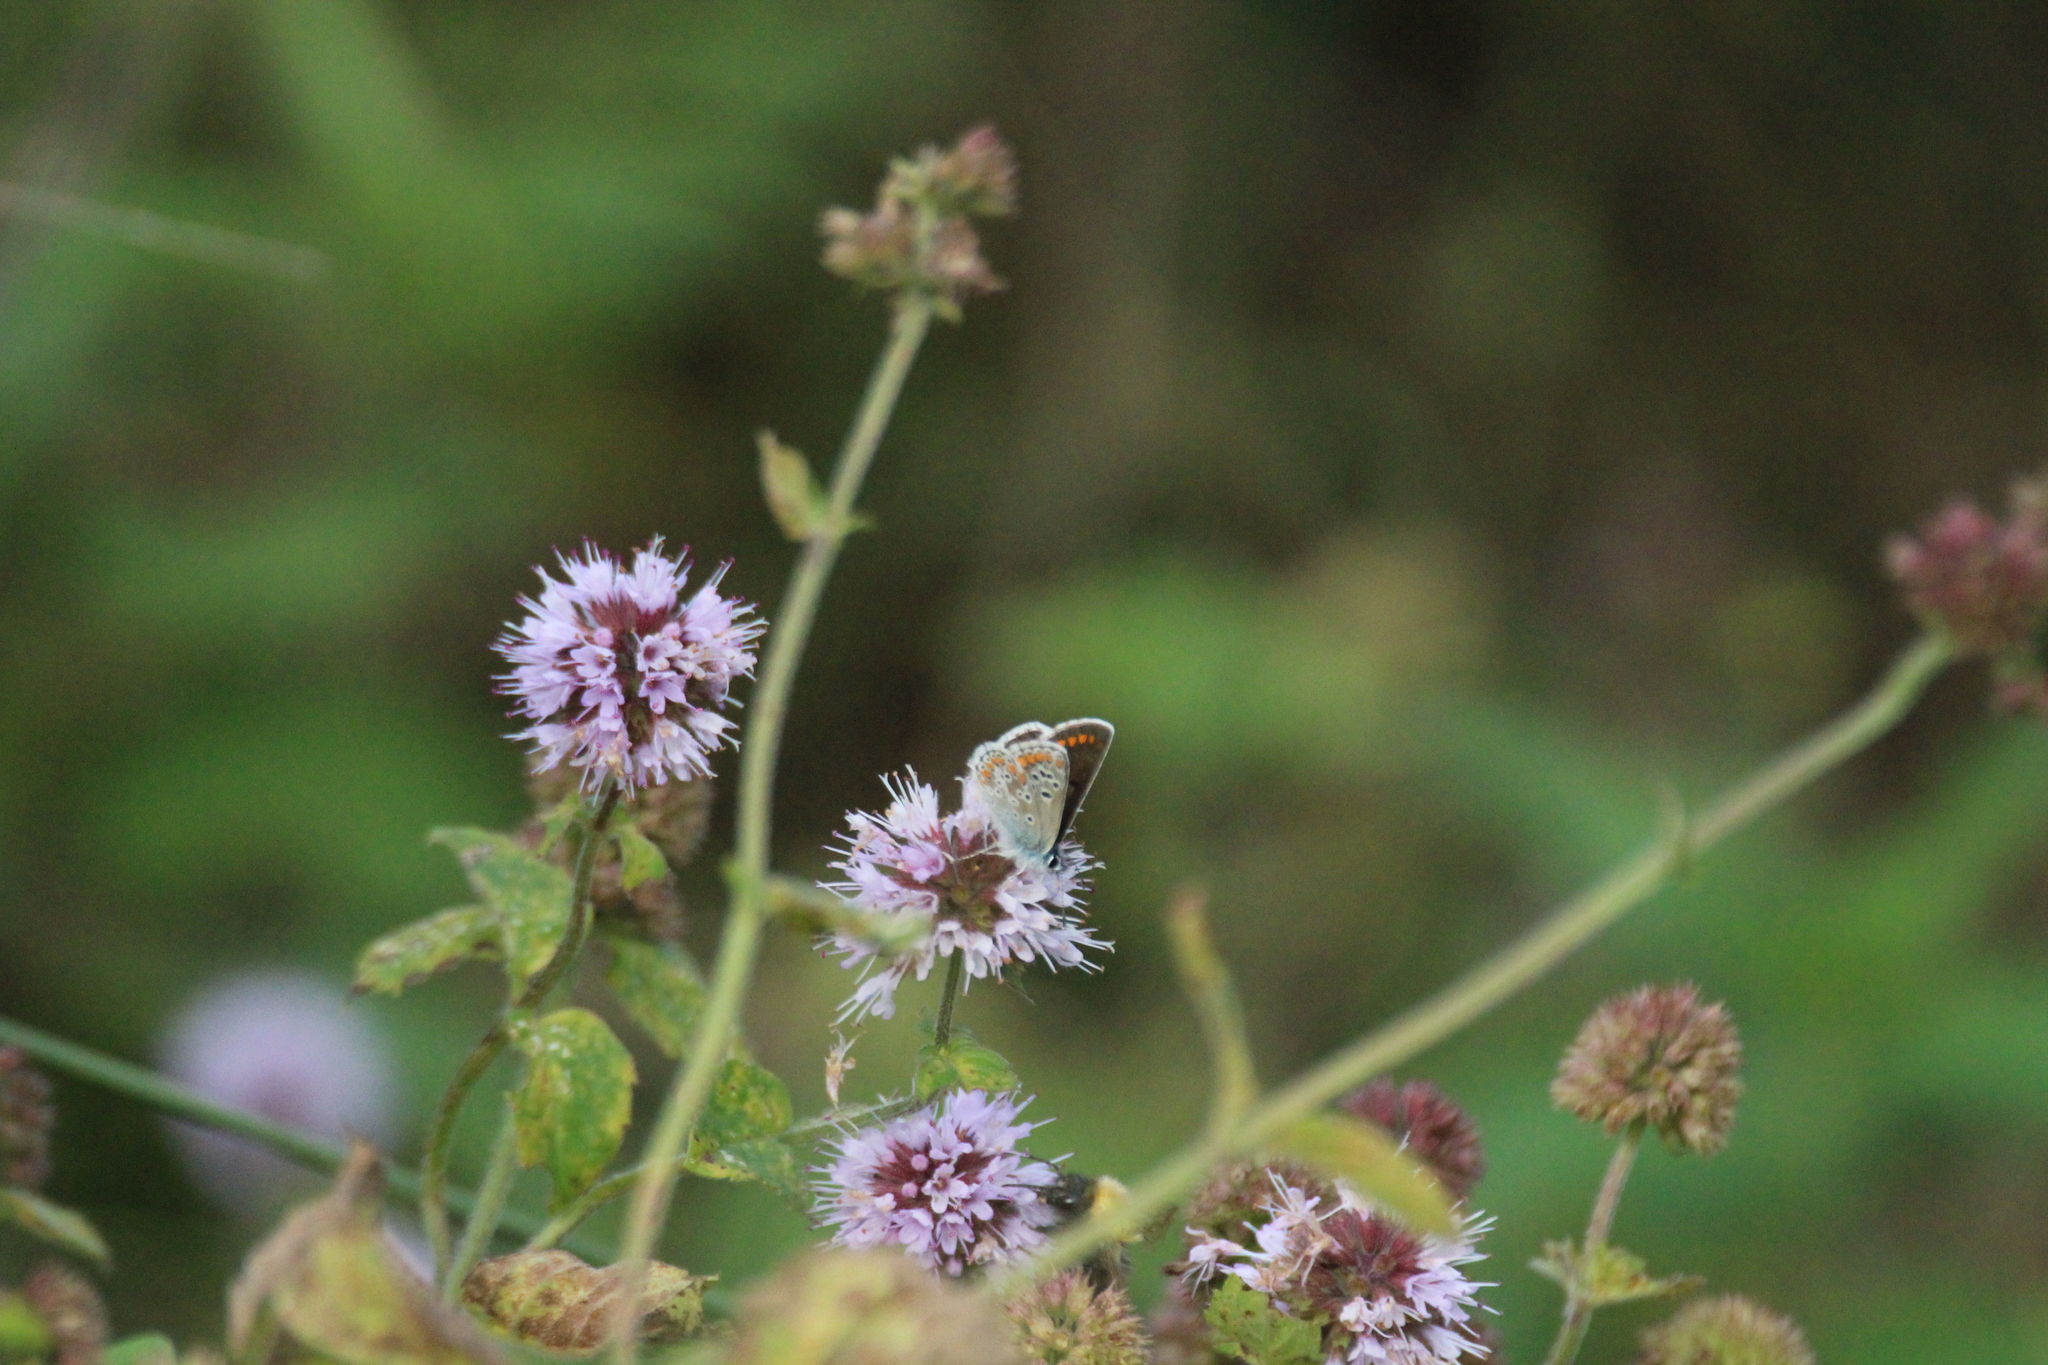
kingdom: Animalia
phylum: Arthropoda
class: Insecta
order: Lepidoptera
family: Lycaenidae
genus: Aricia
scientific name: Aricia agestis
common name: Brown argus
